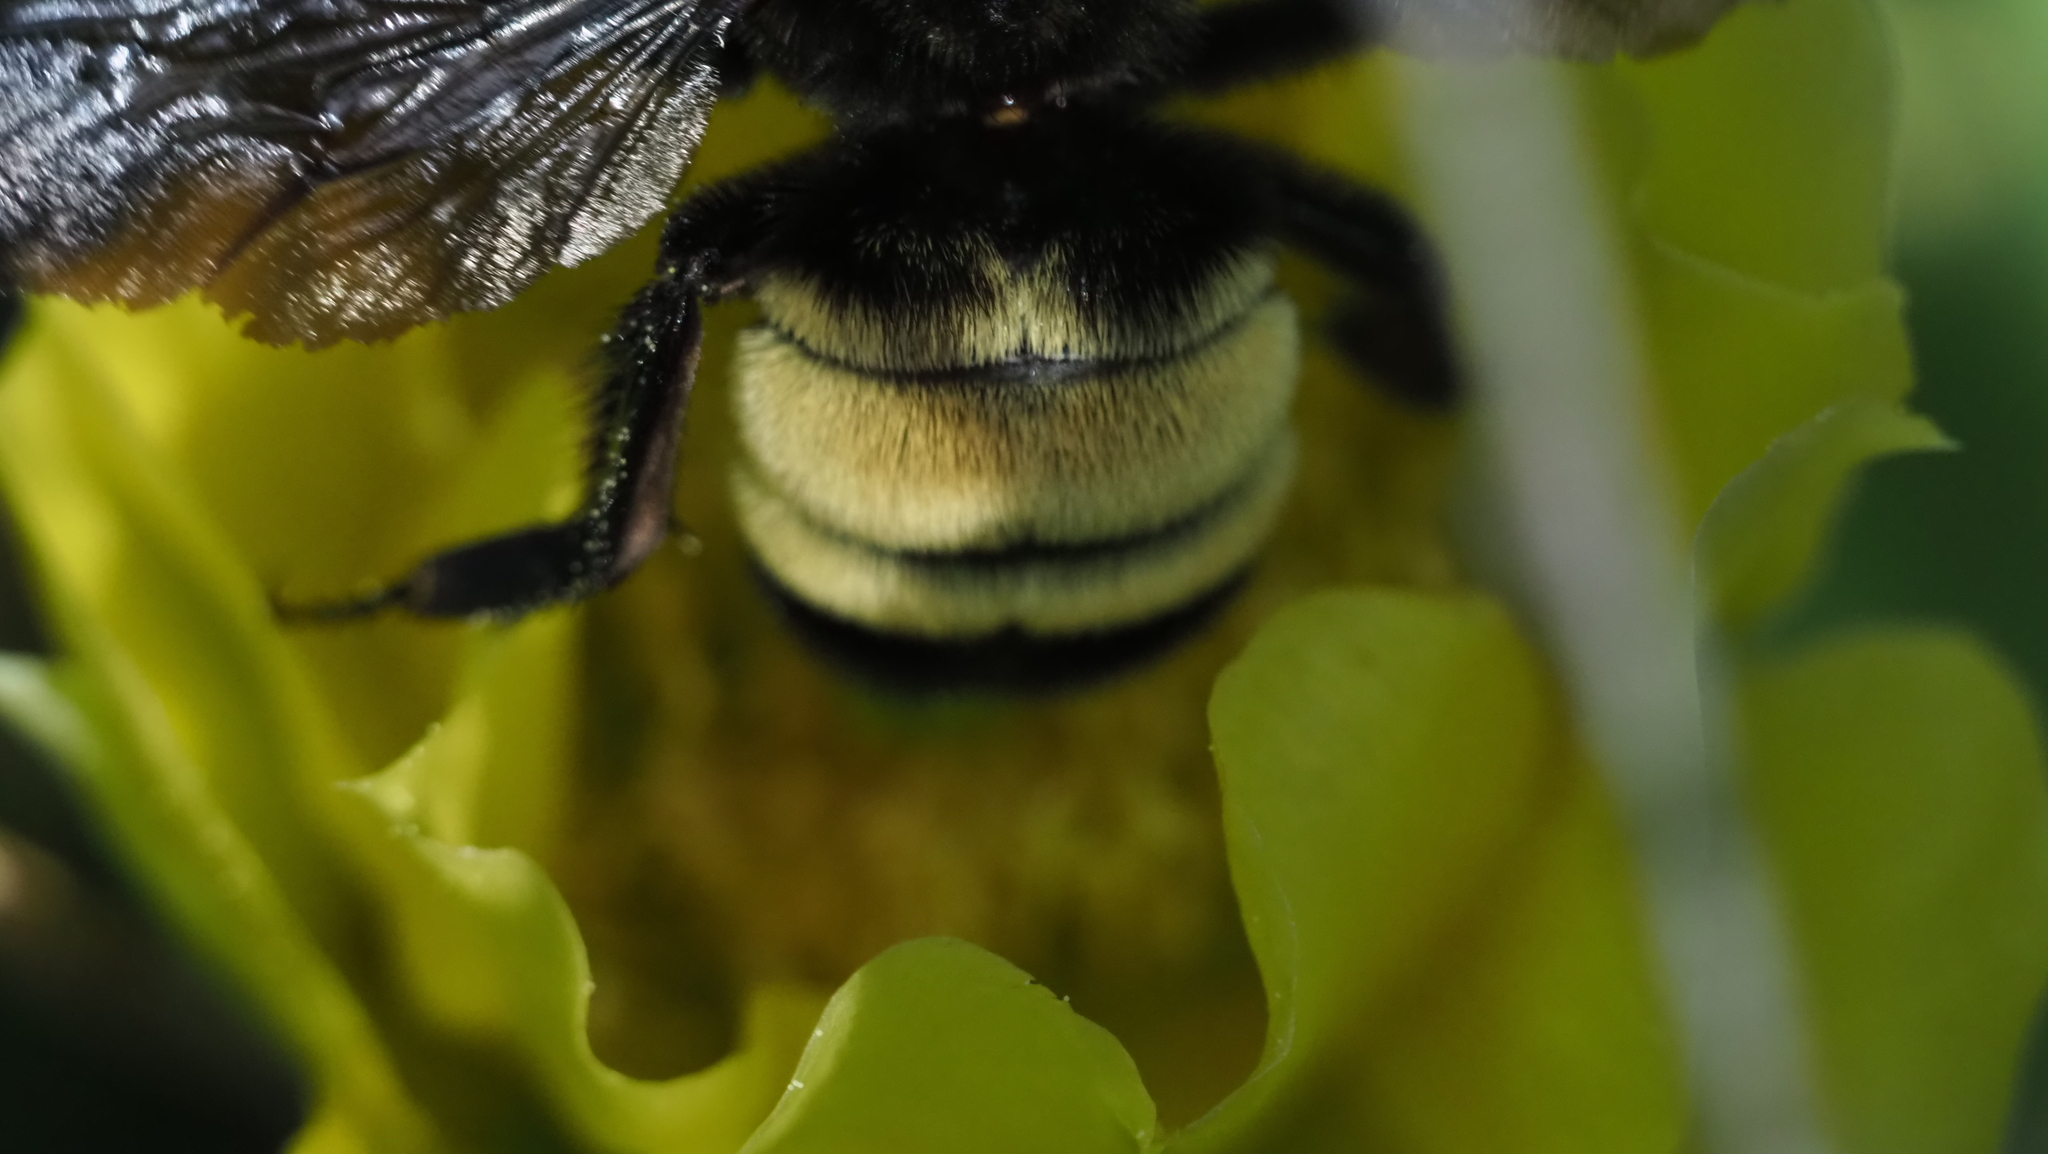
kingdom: Animalia
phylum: Arthropoda
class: Insecta
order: Hymenoptera
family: Apidae
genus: Bombus
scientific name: Bombus pensylvanicus
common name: Bumble bee
